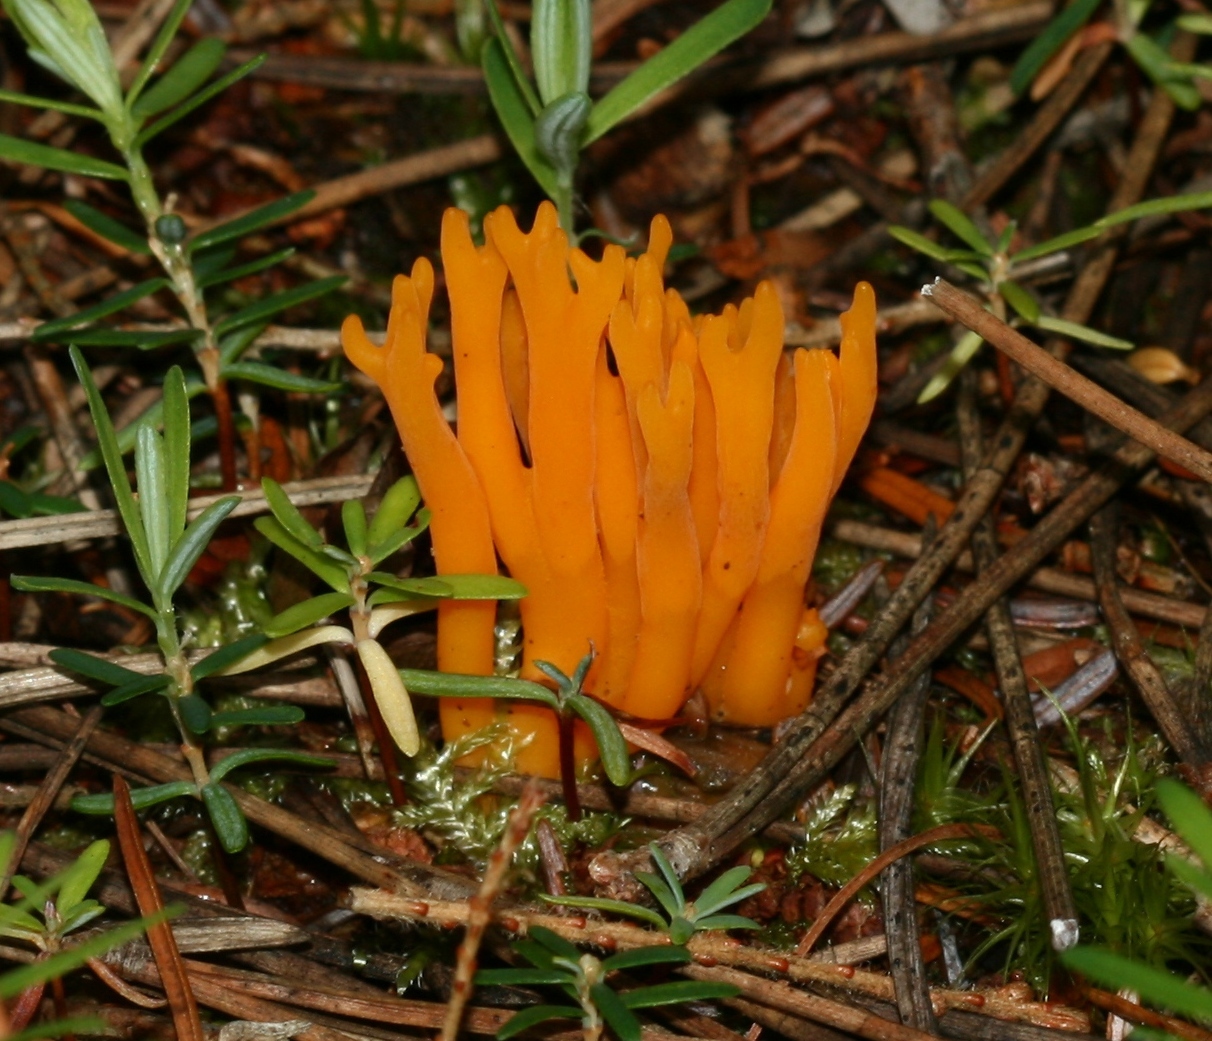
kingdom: Fungi
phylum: Basidiomycota
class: Dacrymycetes
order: Dacrymycetales
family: Dacrymycetaceae
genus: Calocera
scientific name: Calocera viscosa
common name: Yellow stagshorn
